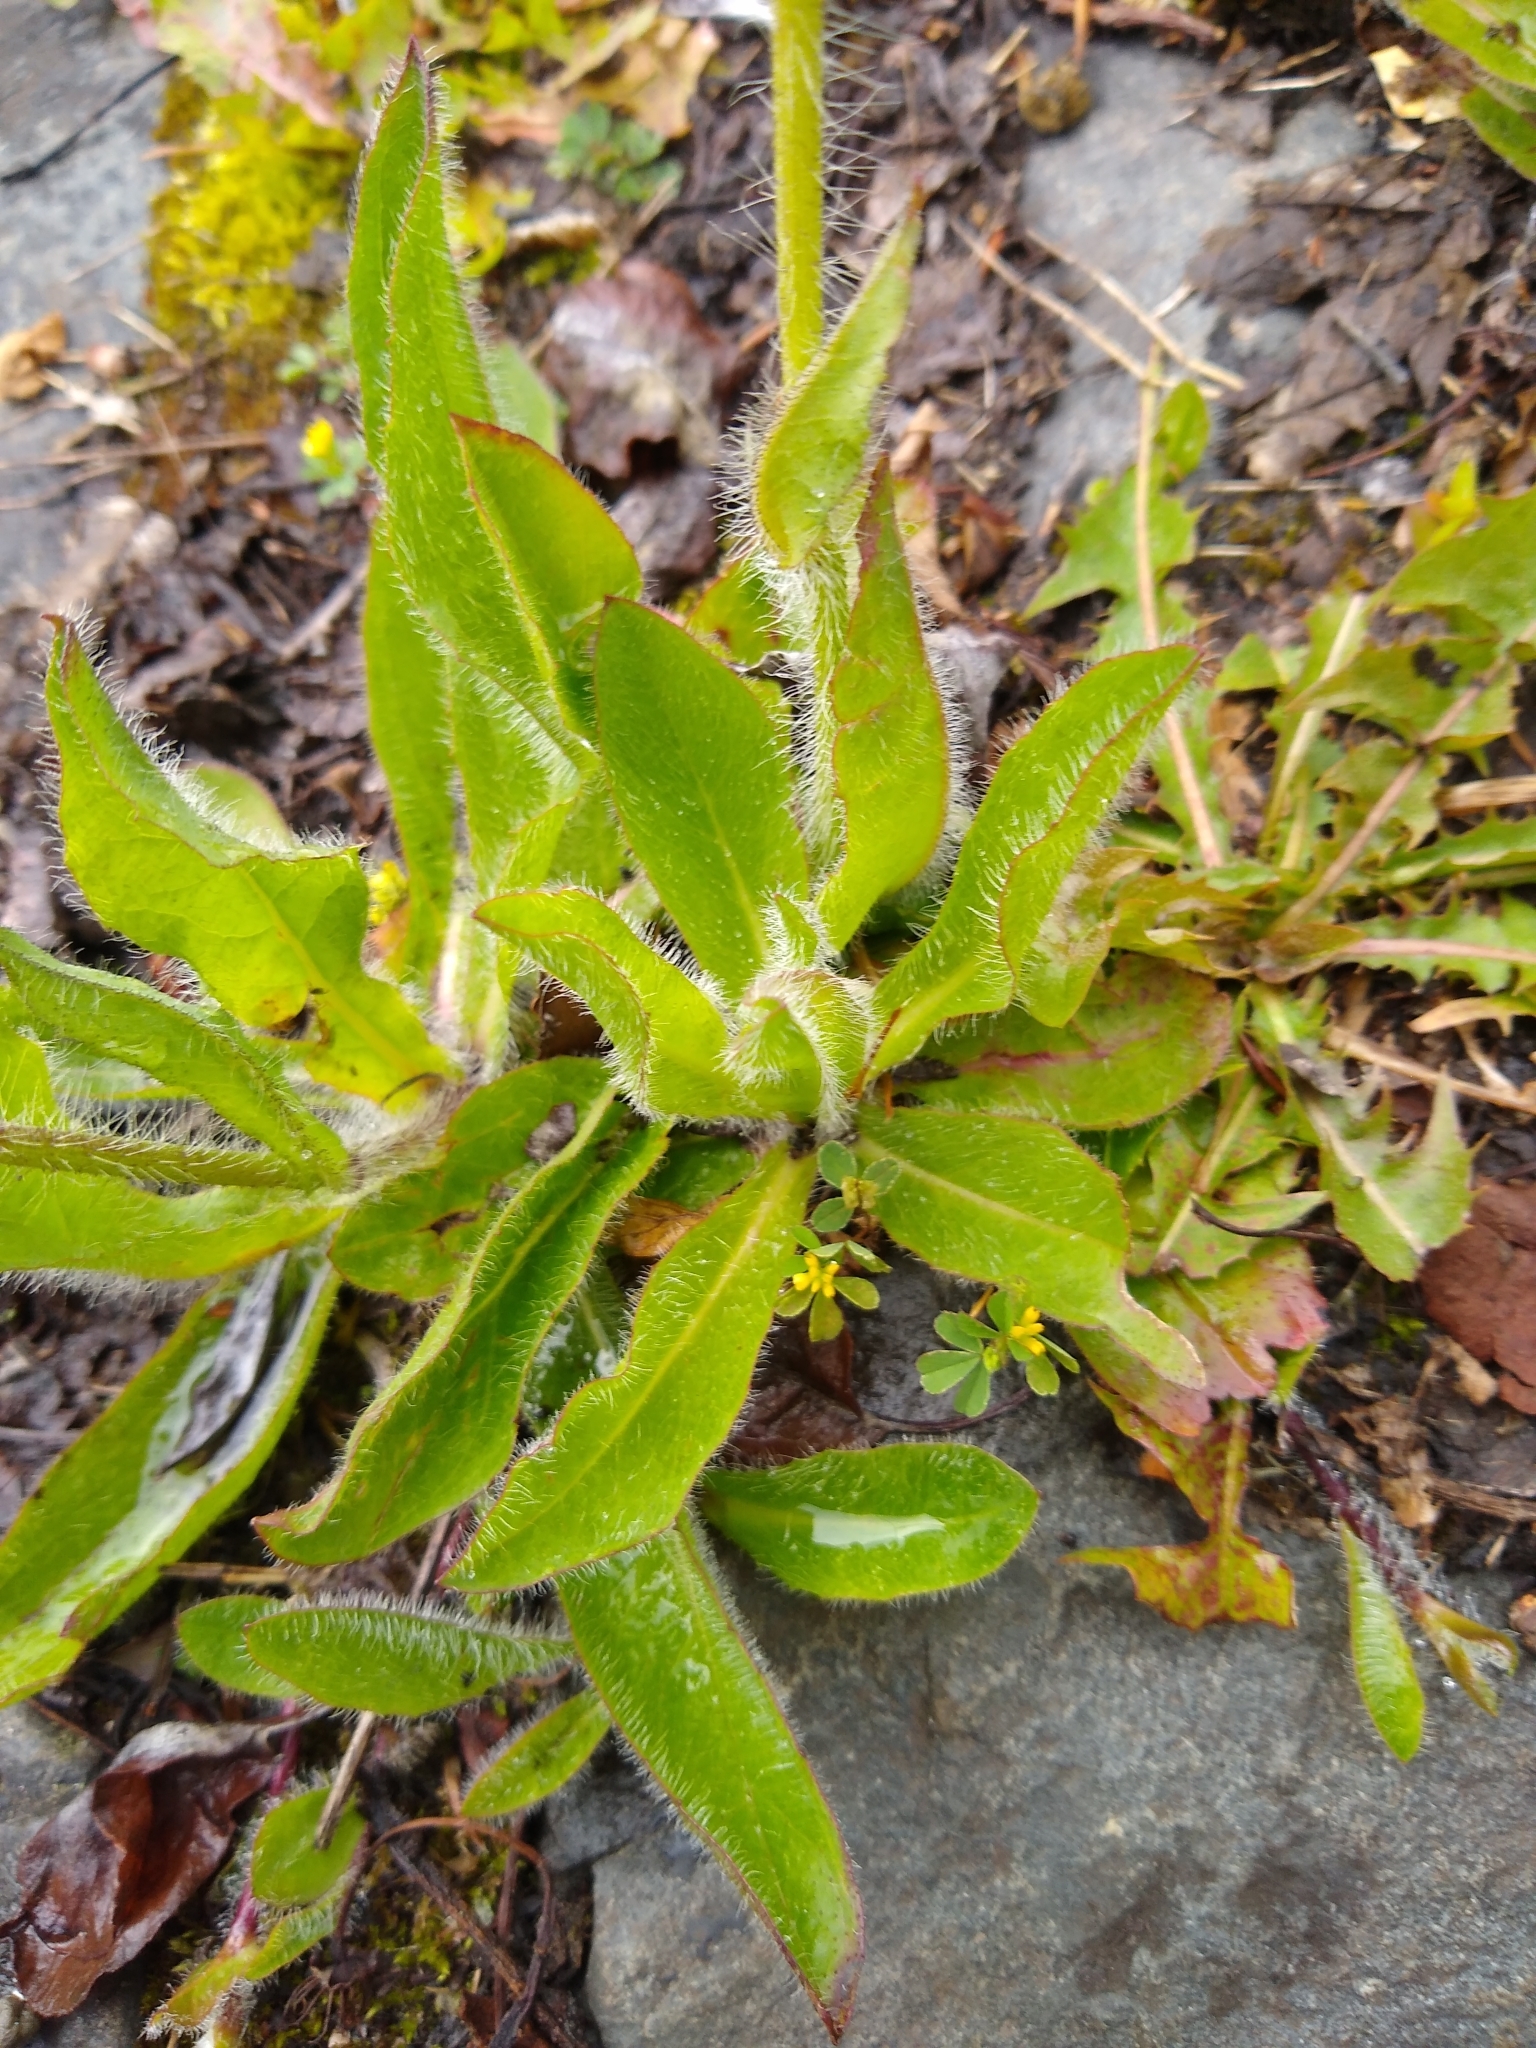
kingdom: Plantae
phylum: Tracheophyta
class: Magnoliopsida
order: Asterales
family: Asteraceae
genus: Pilosella
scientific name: Pilosella aurantiaca
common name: Fox-and-cubs
